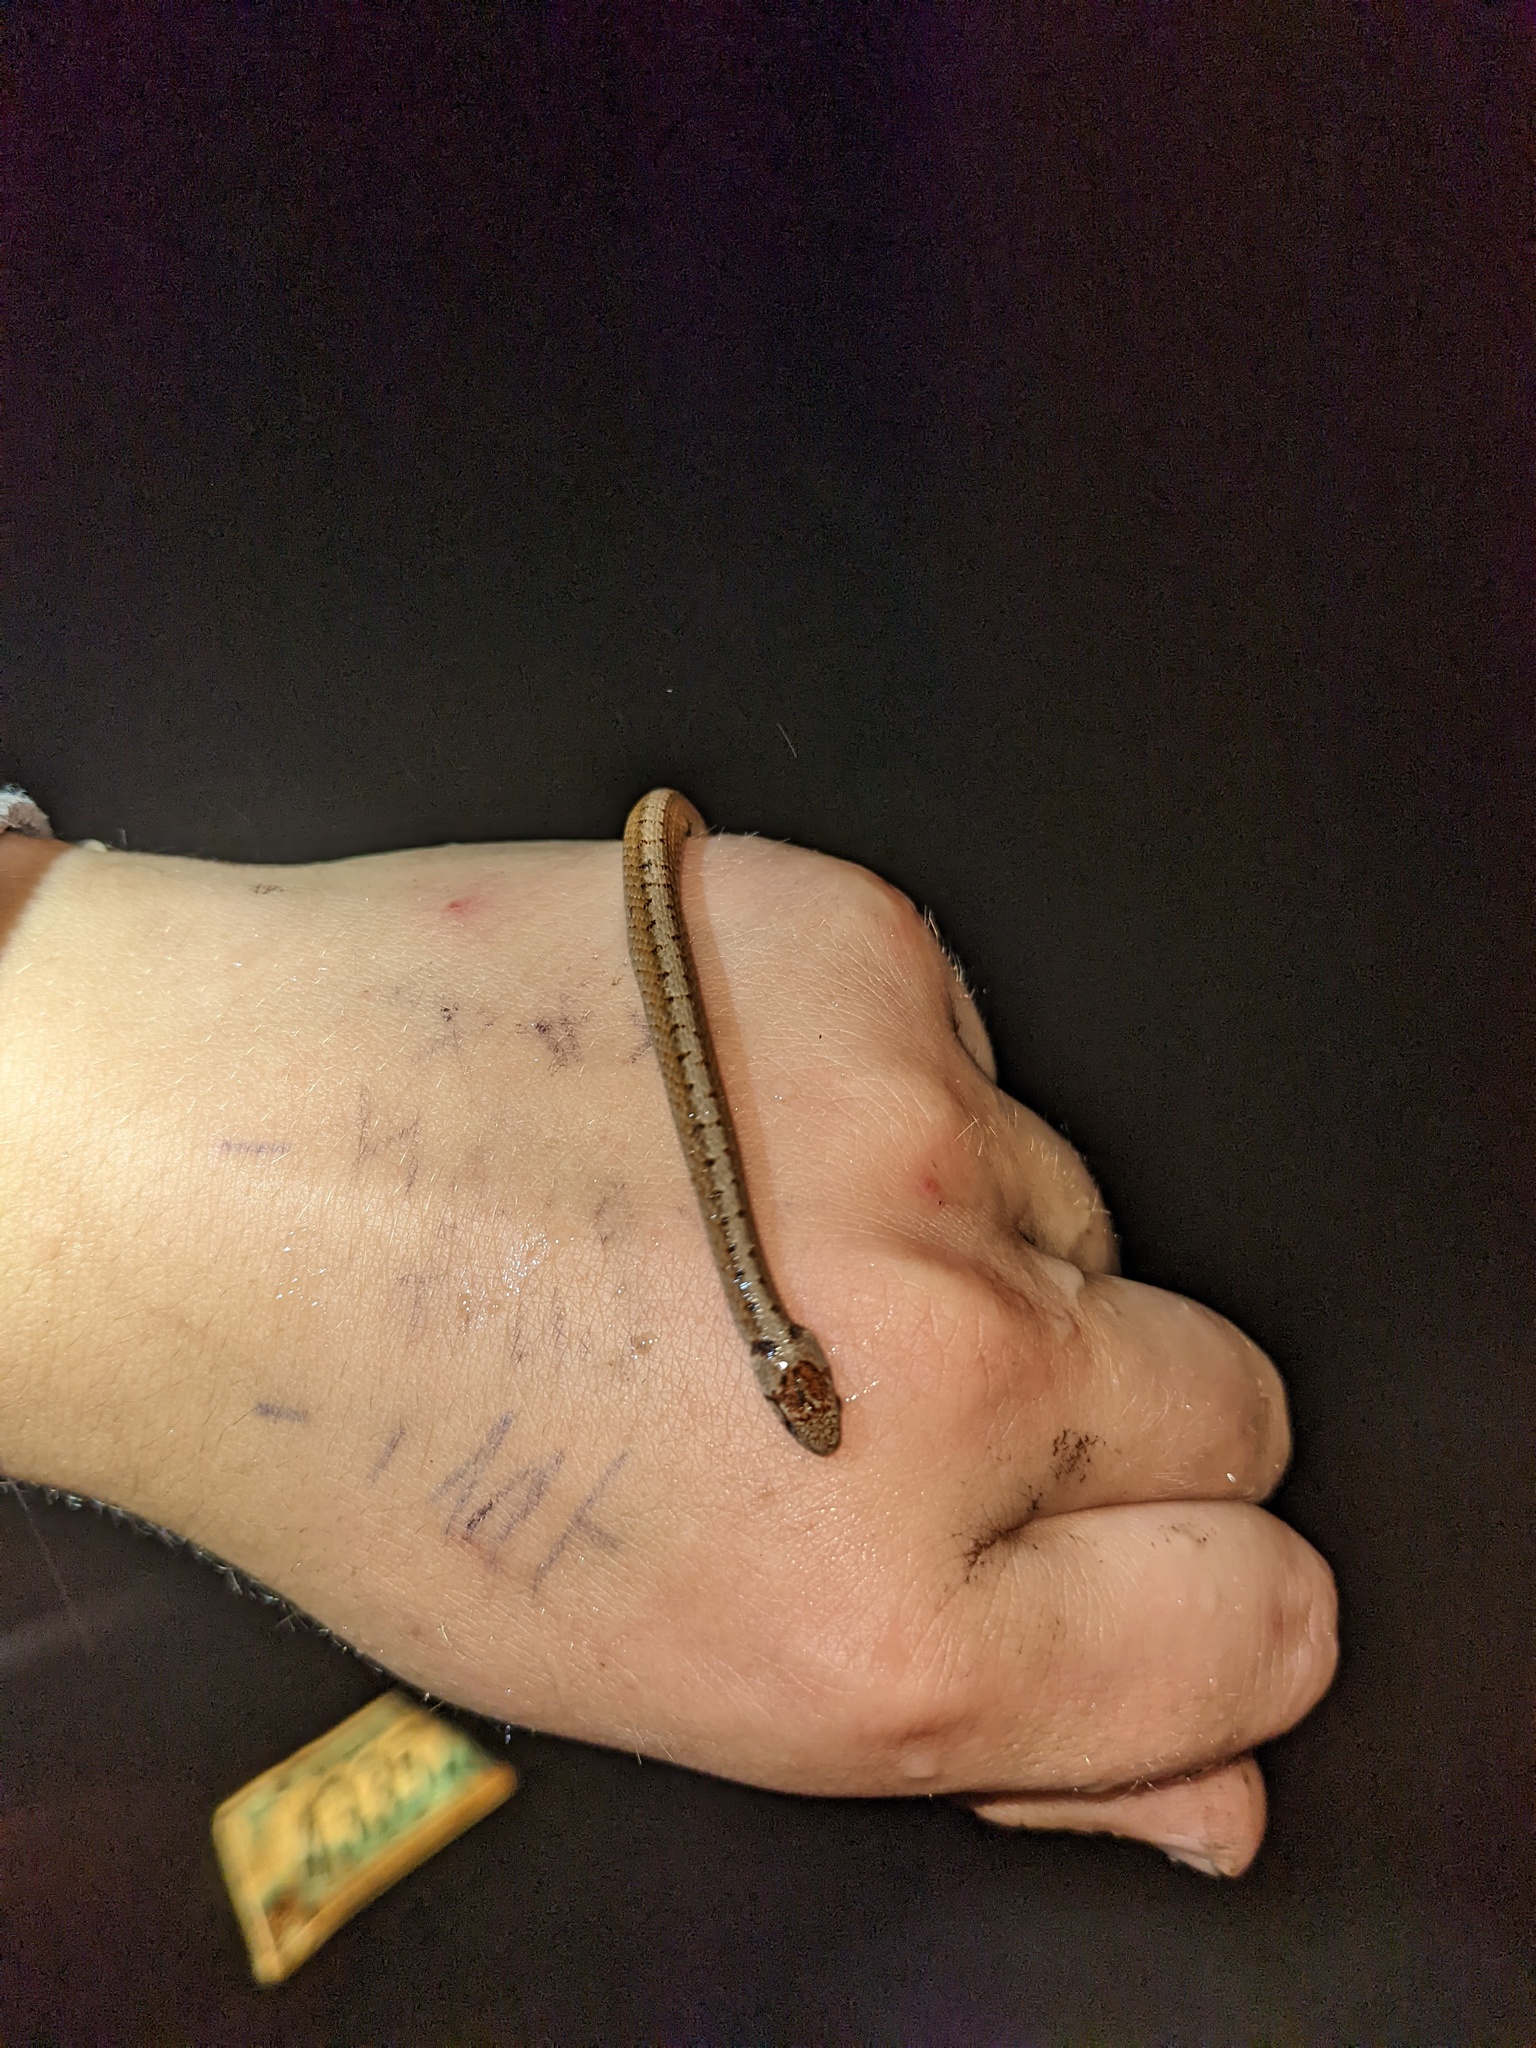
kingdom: Animalia
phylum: Chordata
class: Squamata
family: Colubridae
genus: Storeria
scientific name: Storeria dekayi
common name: (dekay’s) brown snake
